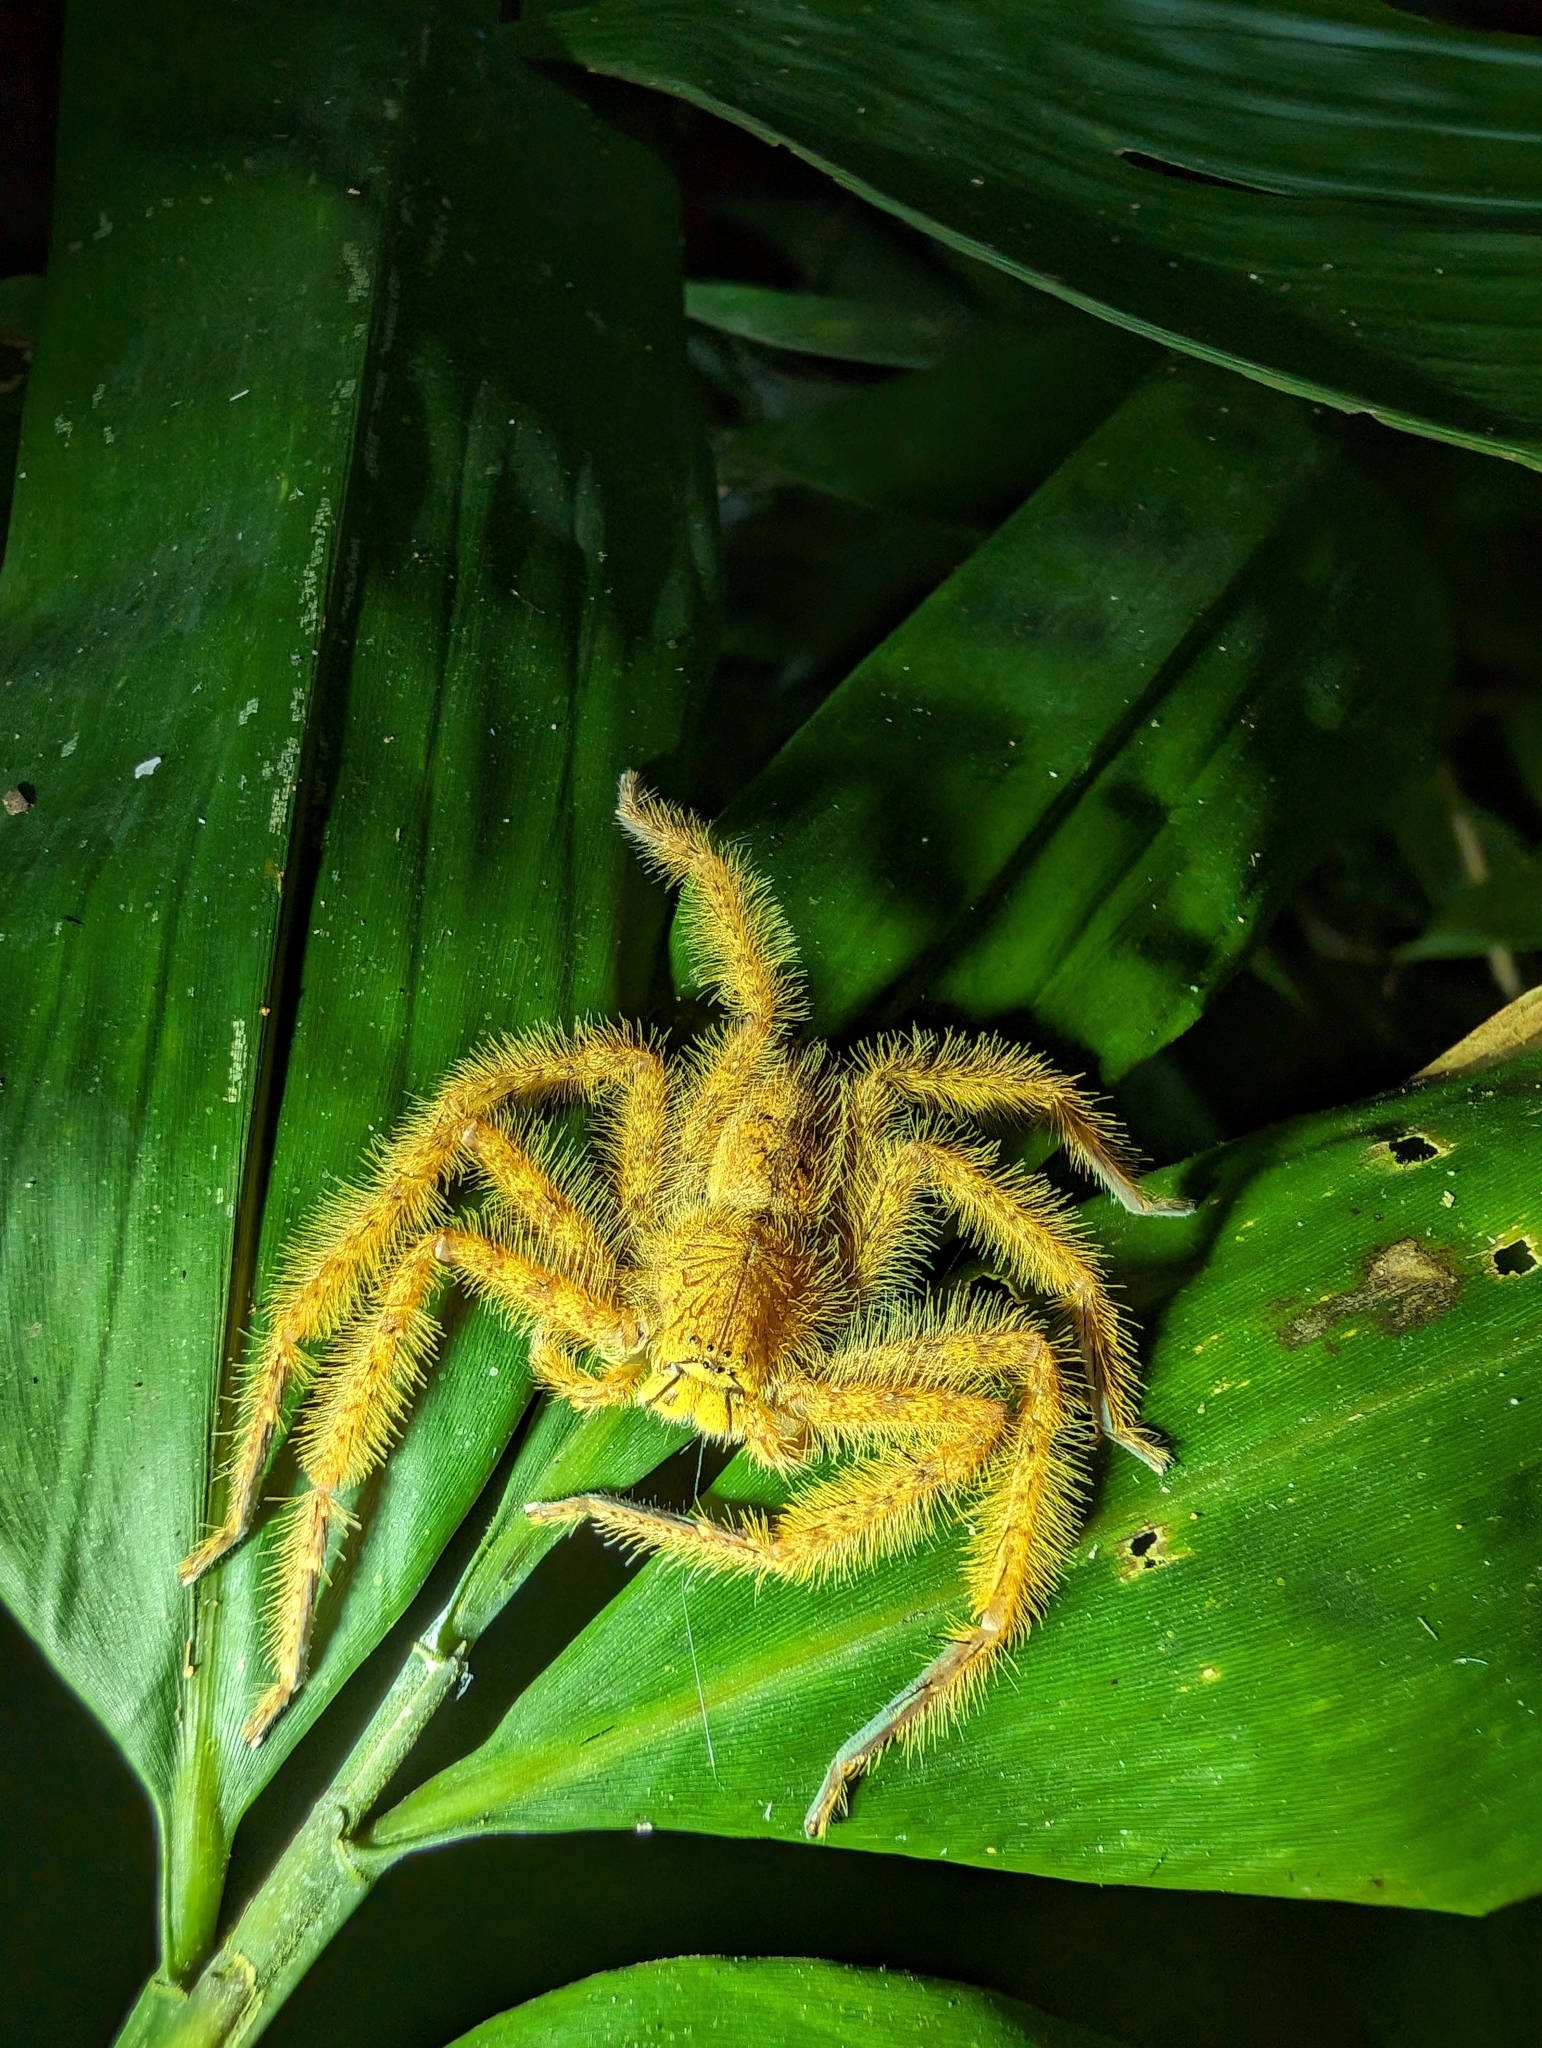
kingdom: Animalia
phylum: Arthropoda
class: Arachnida
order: Araneae
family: Sparassidae
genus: Heteropoda
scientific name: Heteropoda davidbowie
